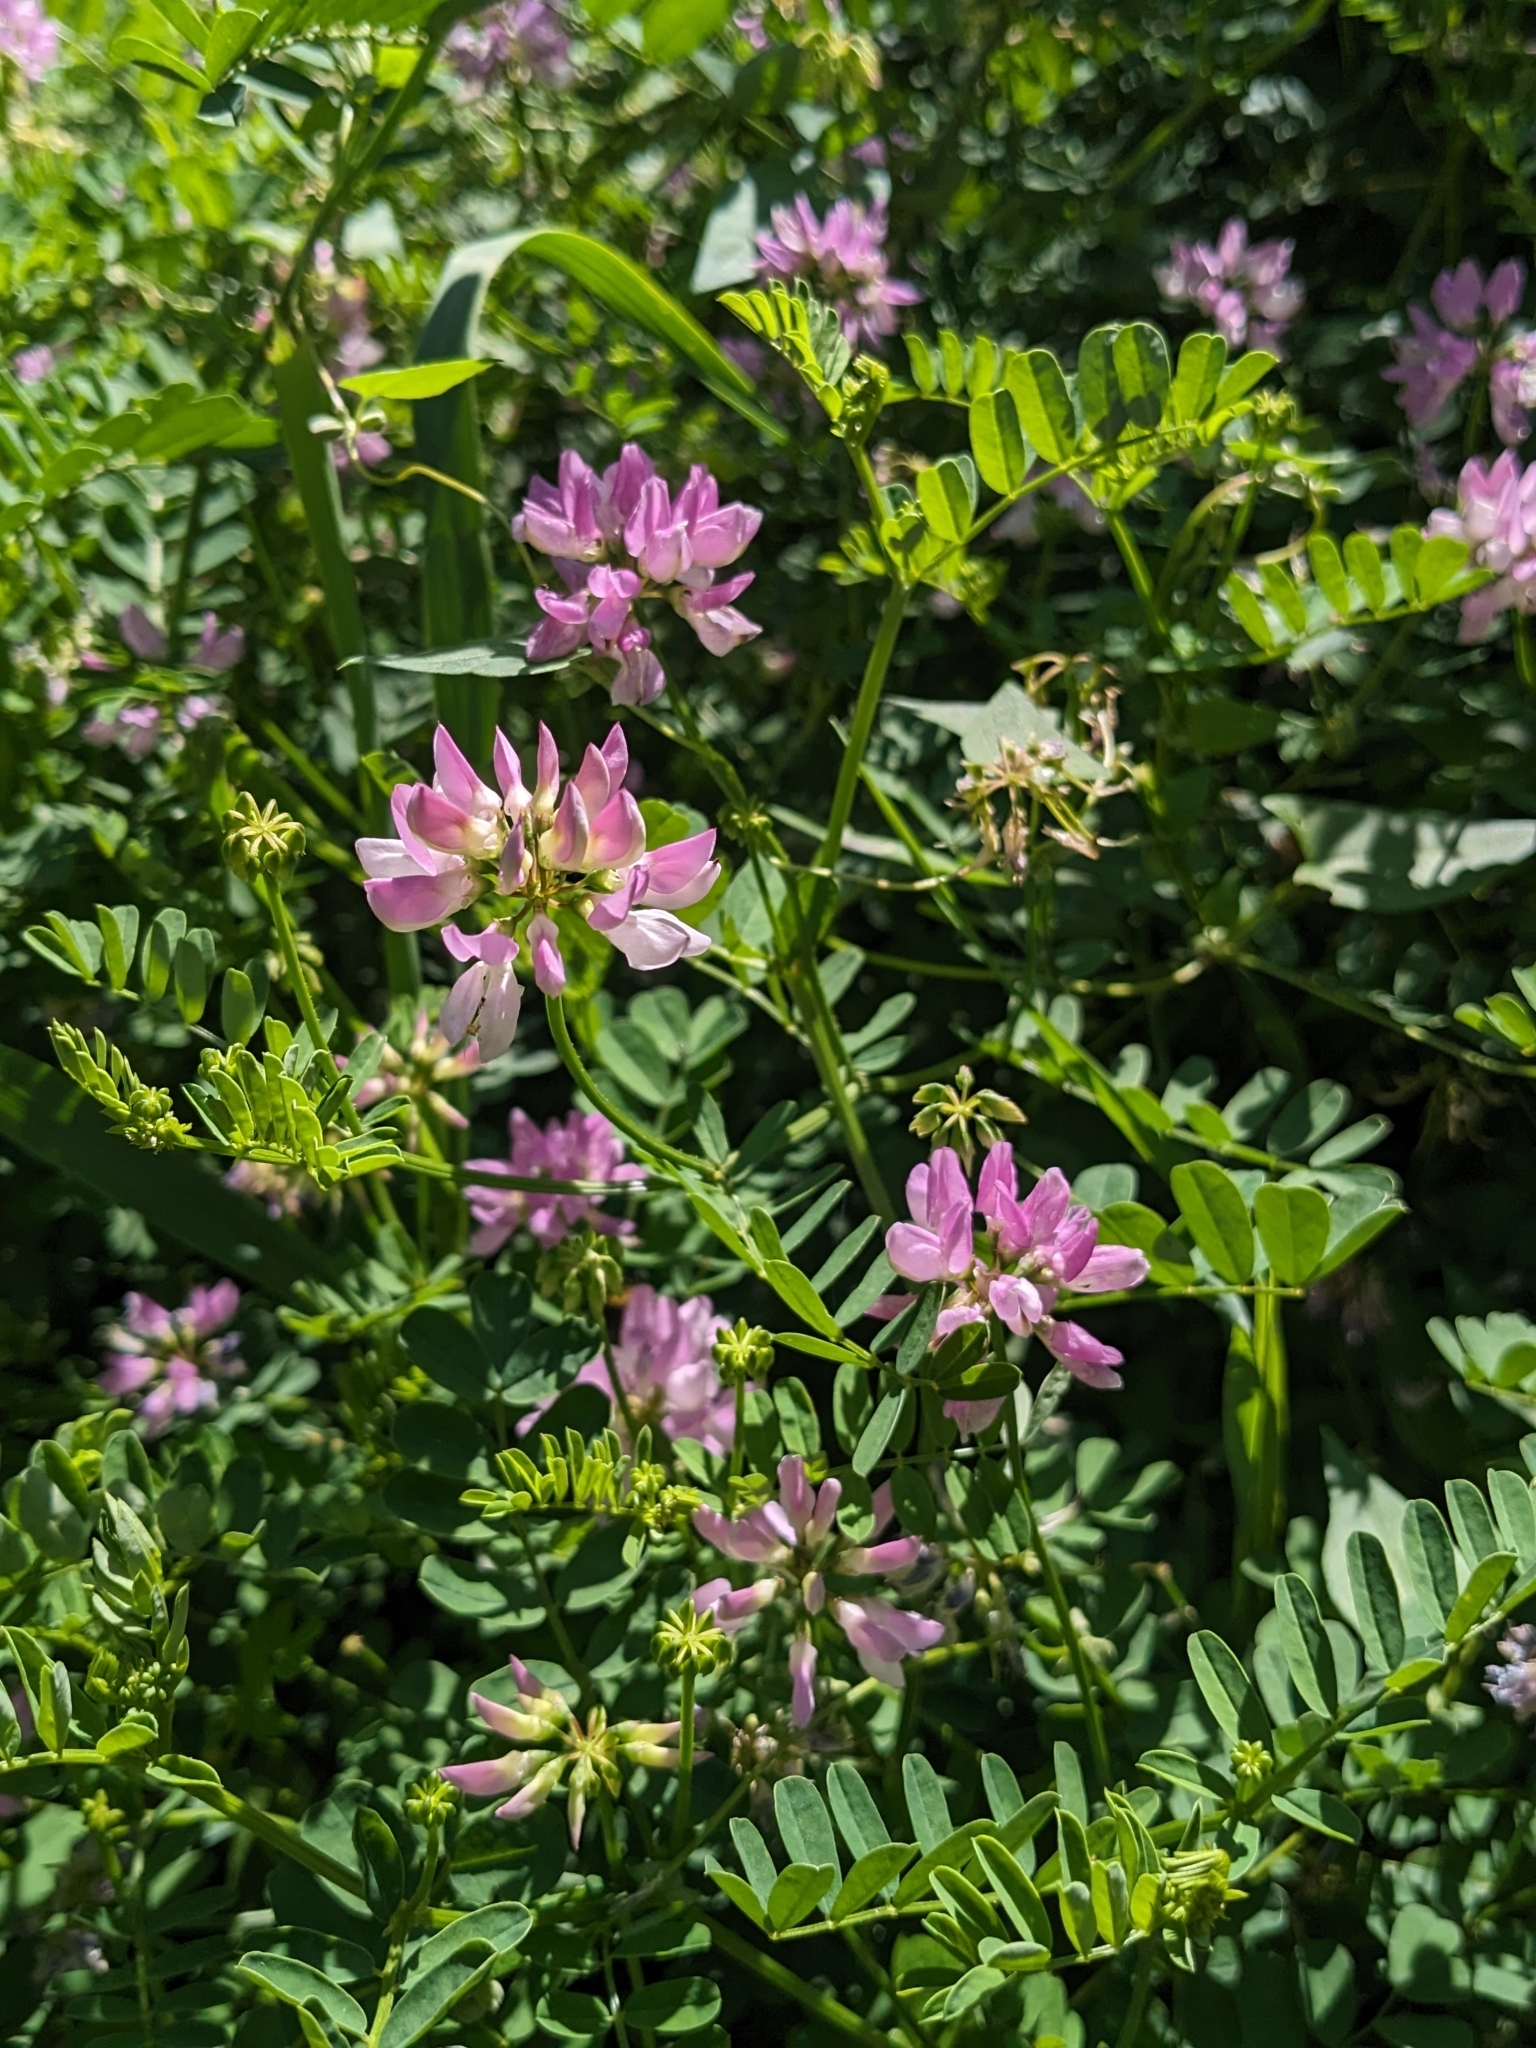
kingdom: Plantae
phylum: Tracheophyta
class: Magnoliopsida
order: Fabales
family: Fabaceae
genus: Coronilla
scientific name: Coronilla varia
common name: Crownvetch
